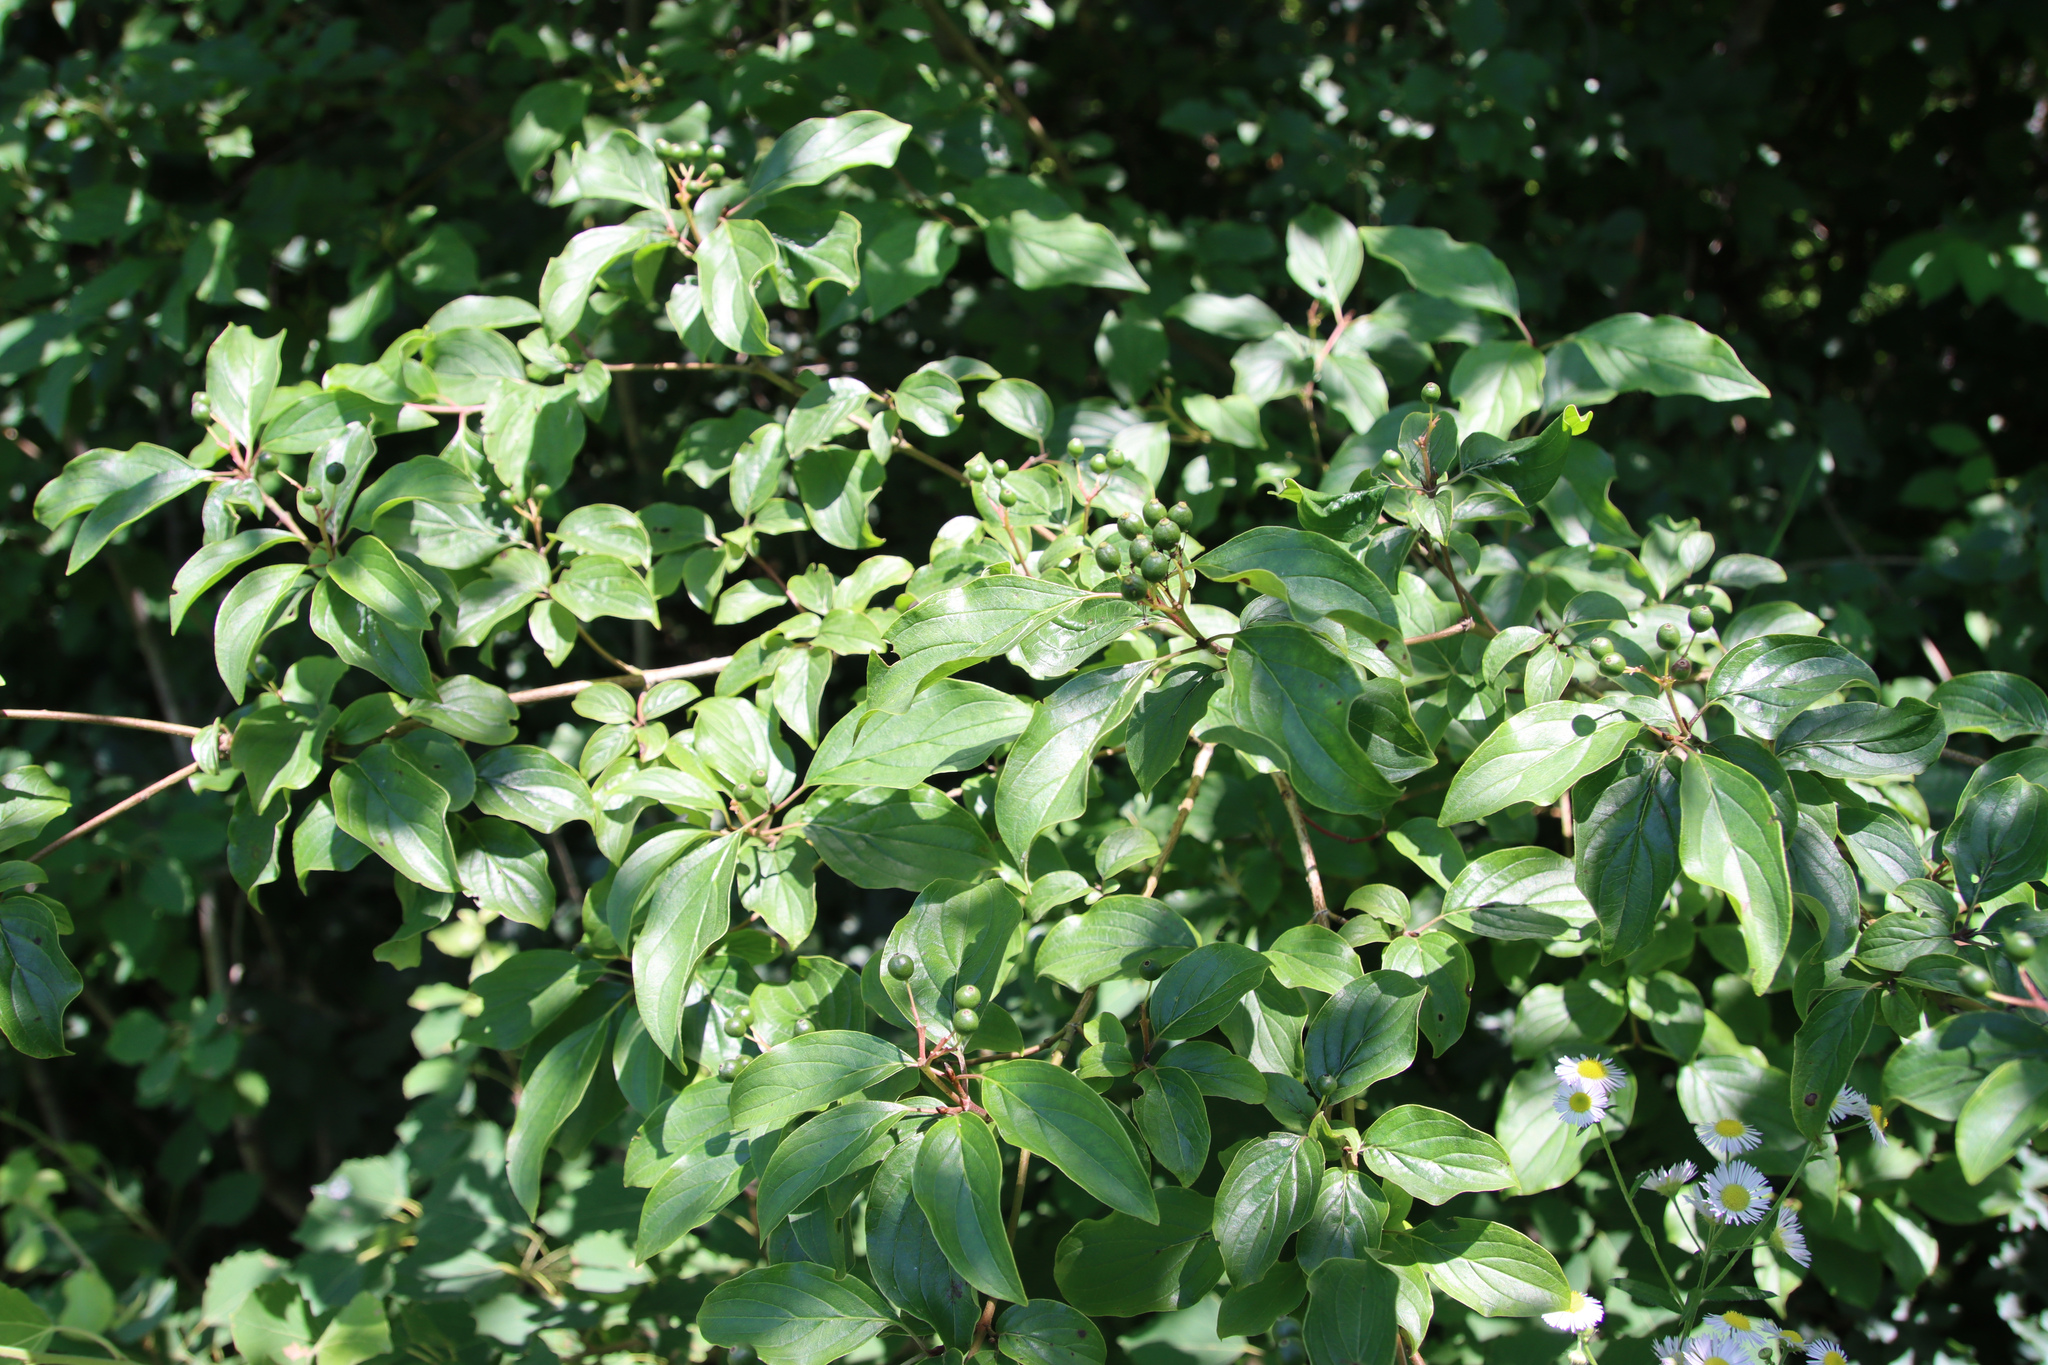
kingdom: Plantae
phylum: Tracheophyta
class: Magnoliopsida
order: Cornales
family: Cornaceae
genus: Cornus
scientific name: Cornus sanguinea
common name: Dogwood
